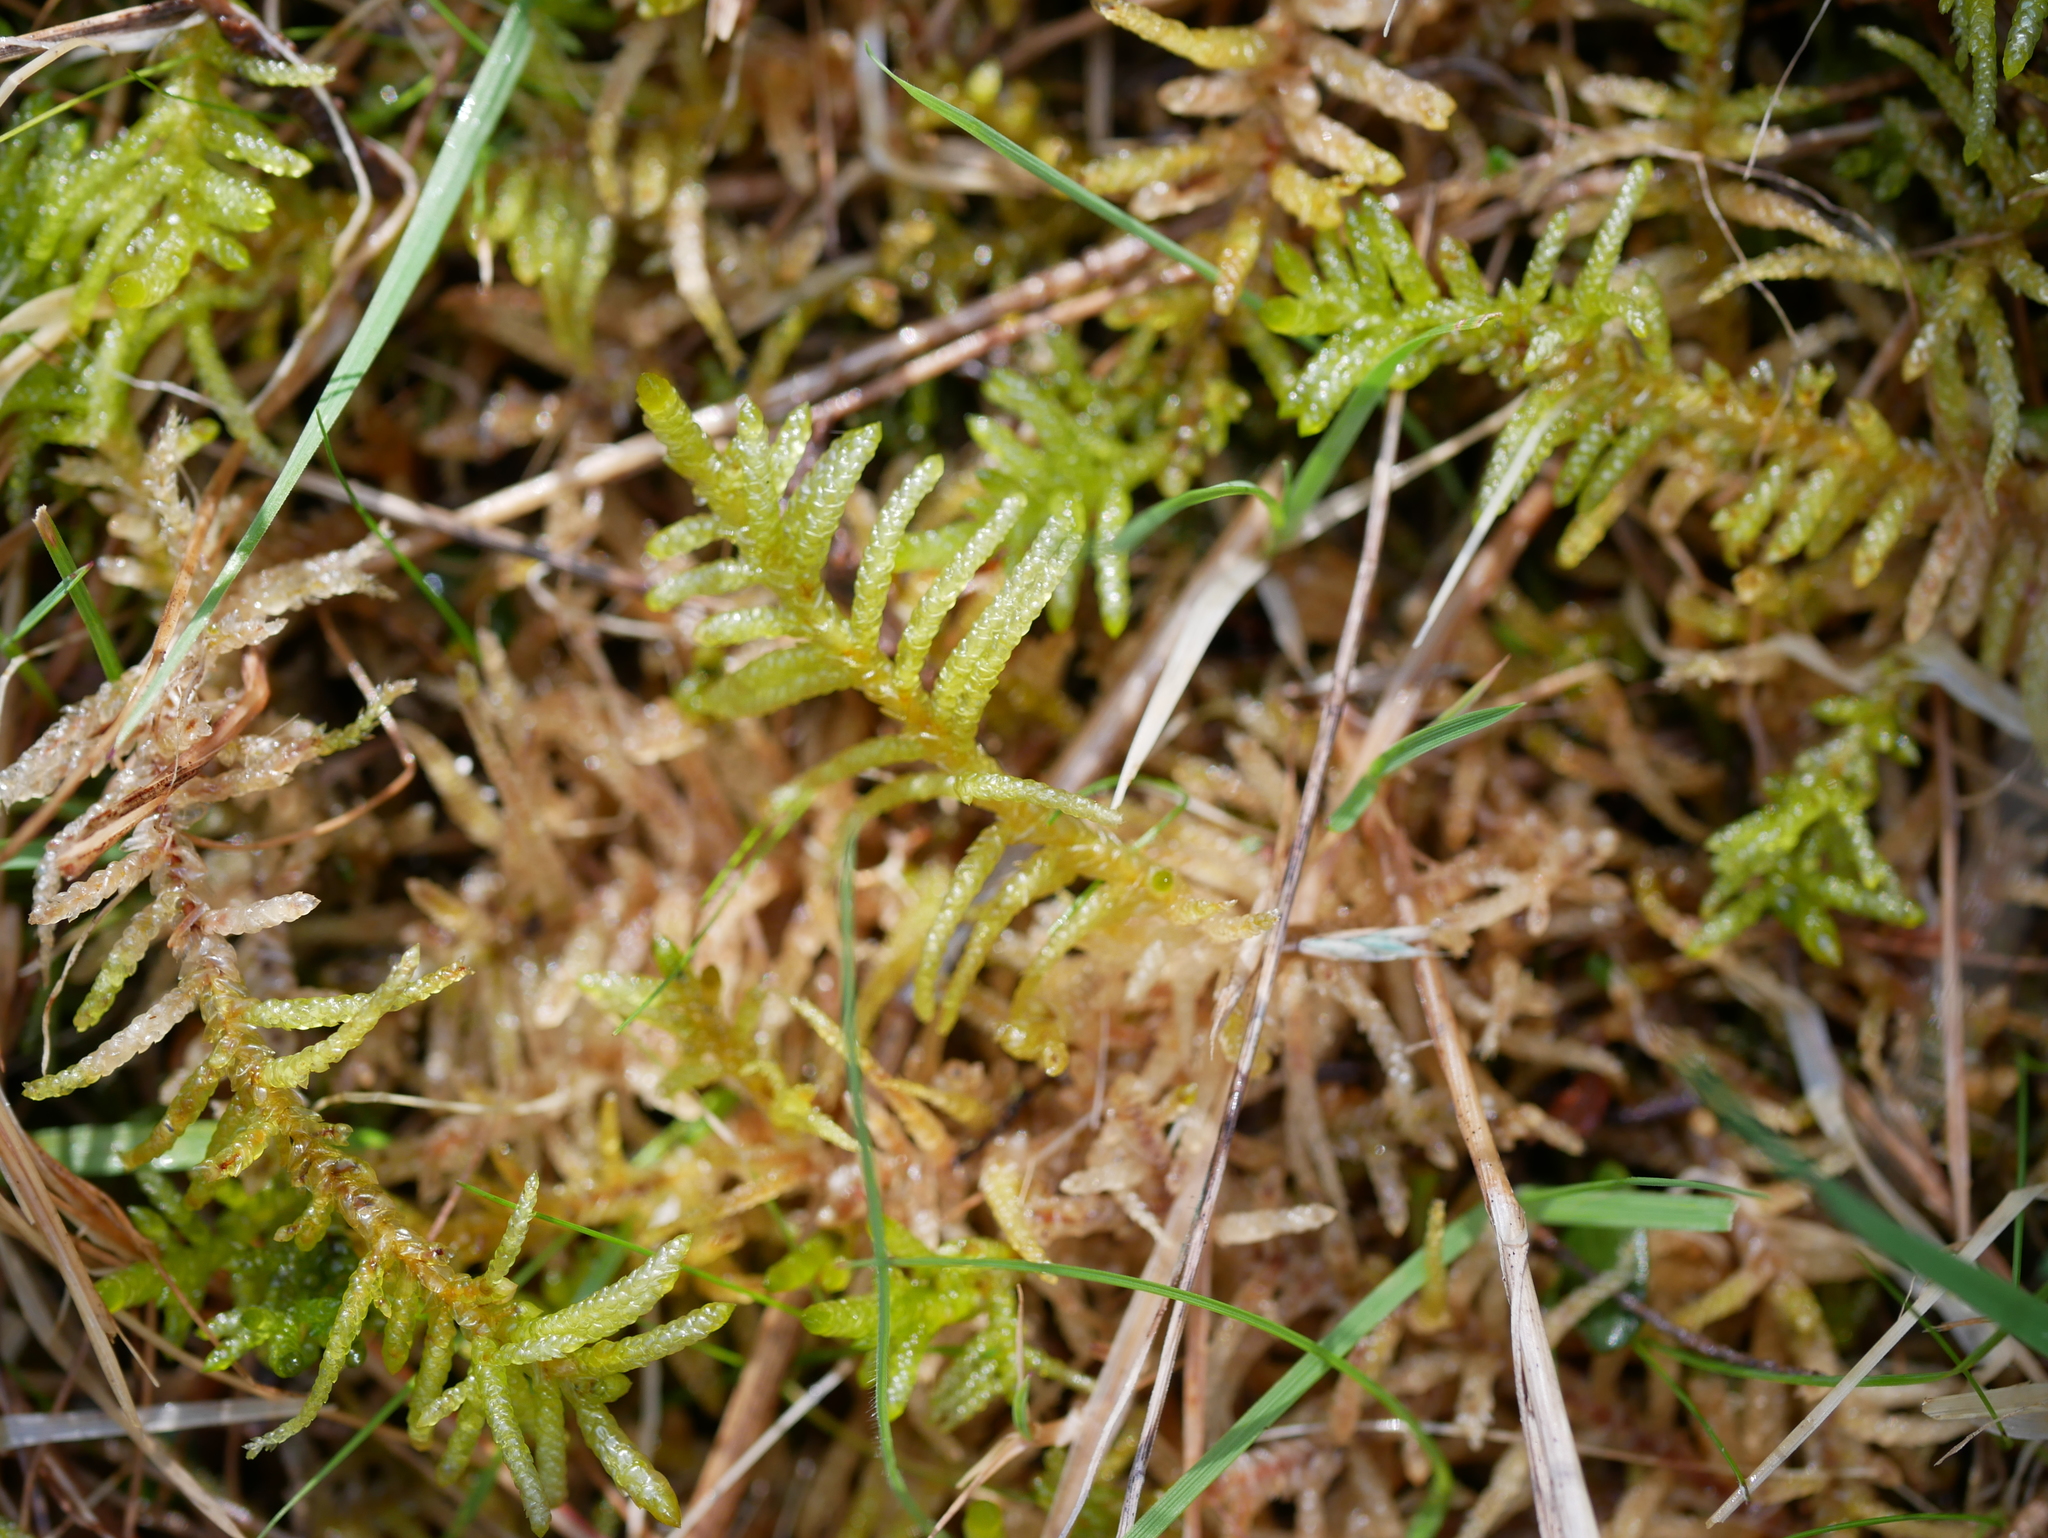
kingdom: Plantae
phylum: Bryophyta
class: Bryopsida
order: Hypnales
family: Brachytheciaceae
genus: Pseudoscleropodium
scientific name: Pseudoscleropodium purum
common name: Neat feather-moss
